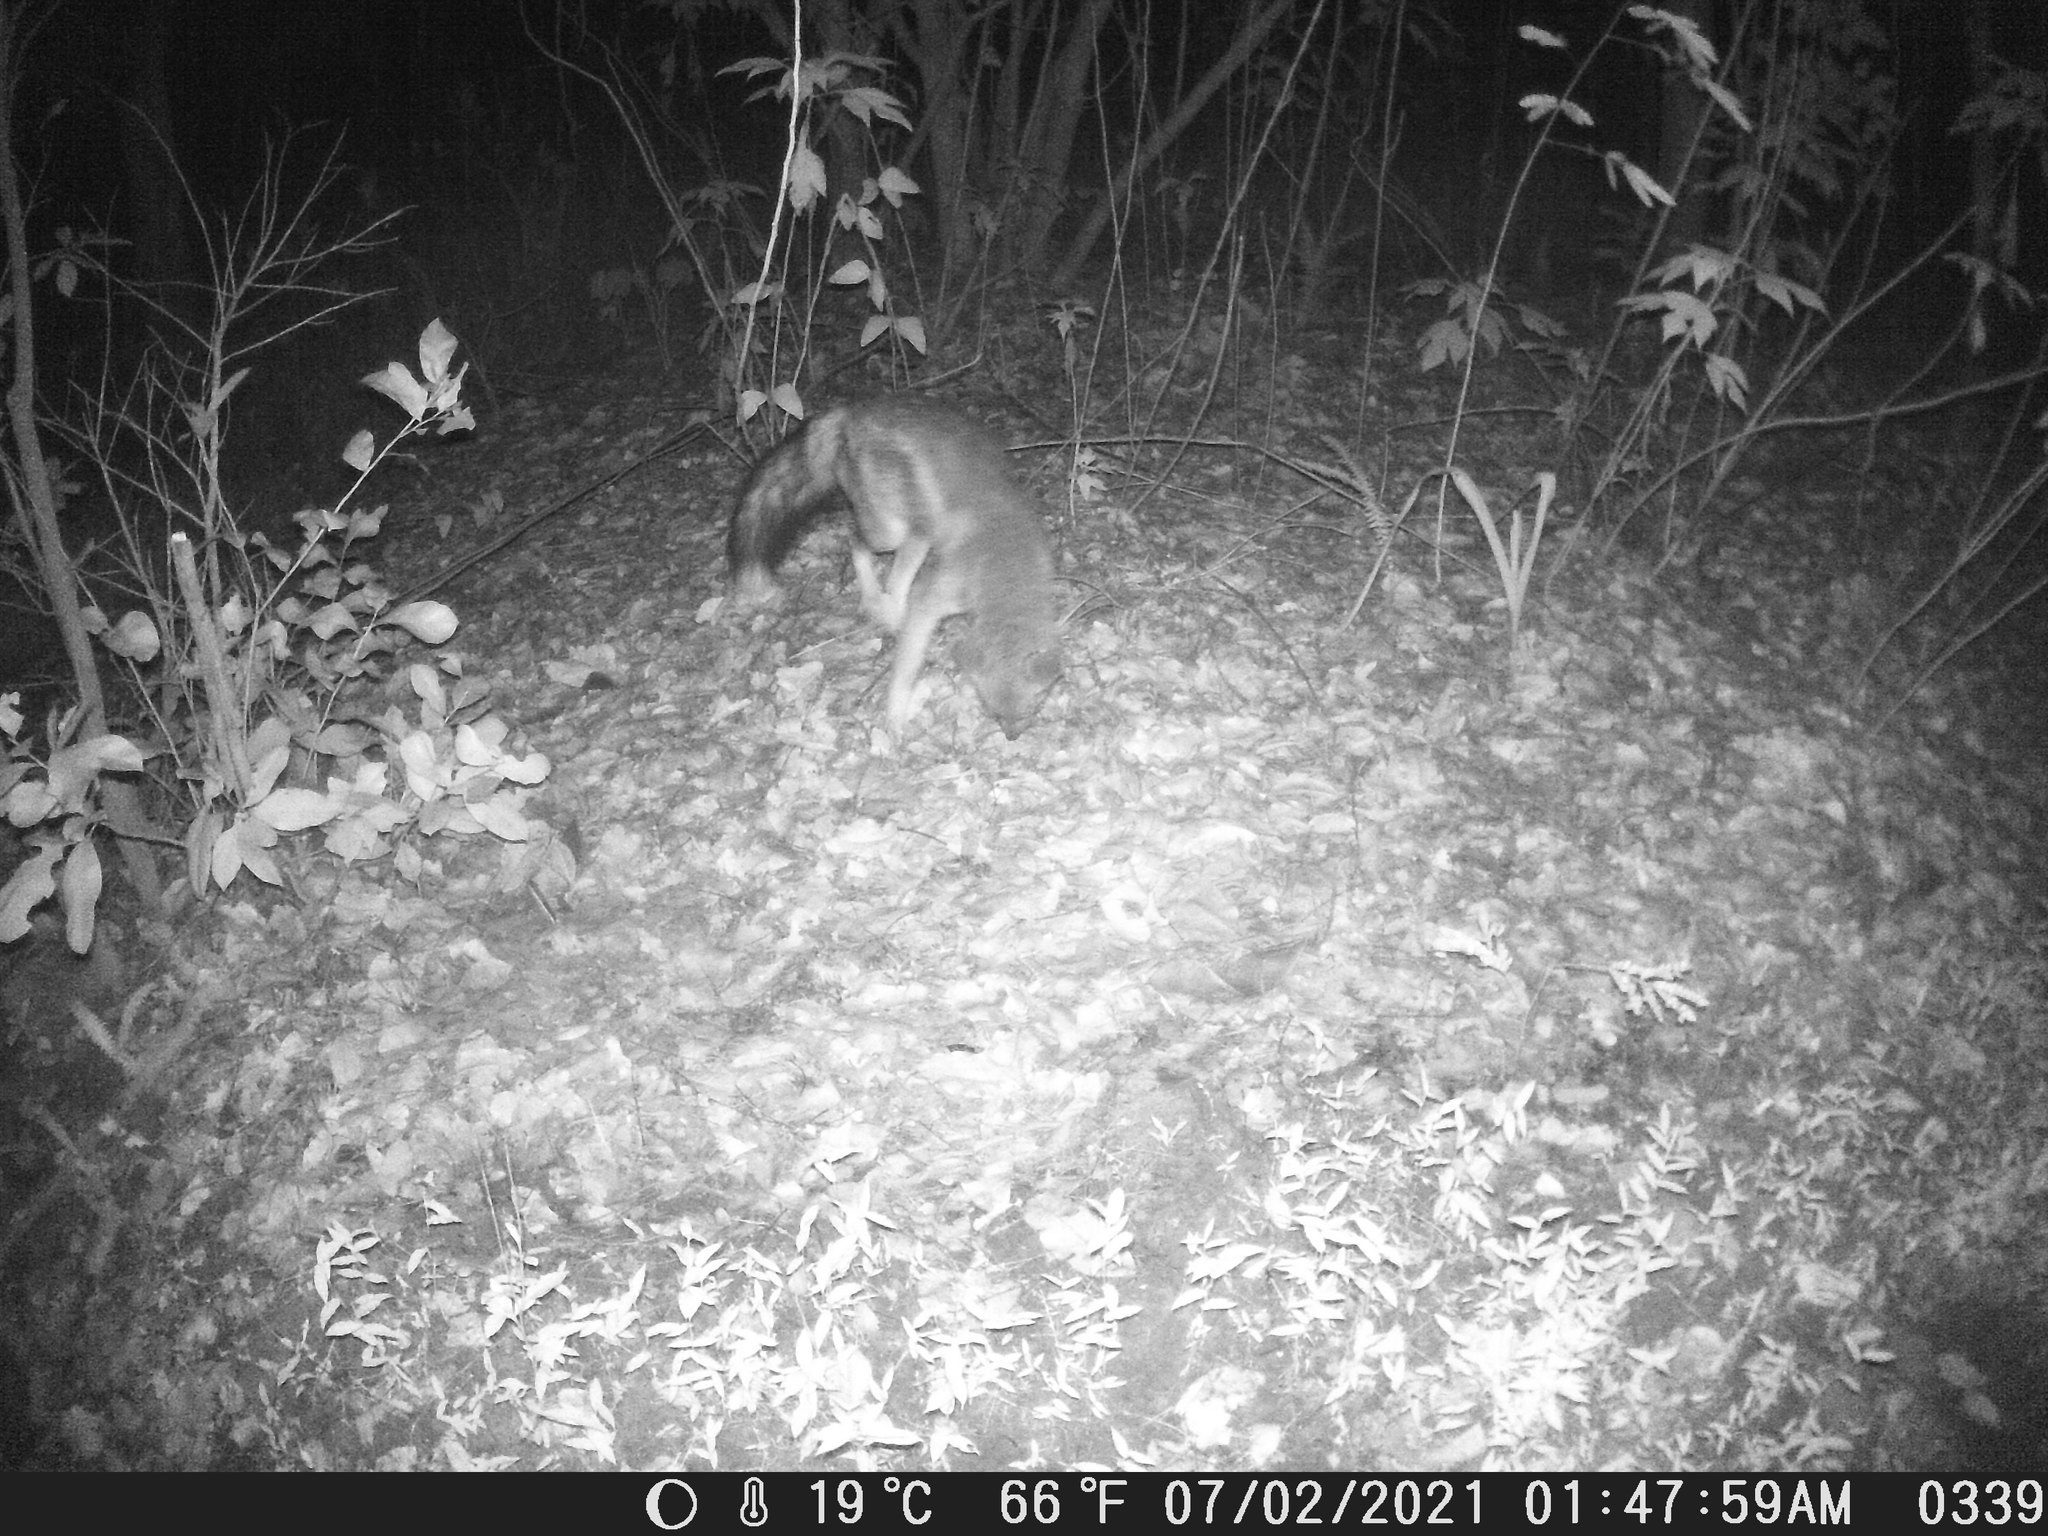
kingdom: Animalia
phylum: Chordata
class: Mammalia
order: Carnivora
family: Canidae
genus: Lupulella
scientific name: Lupulella
